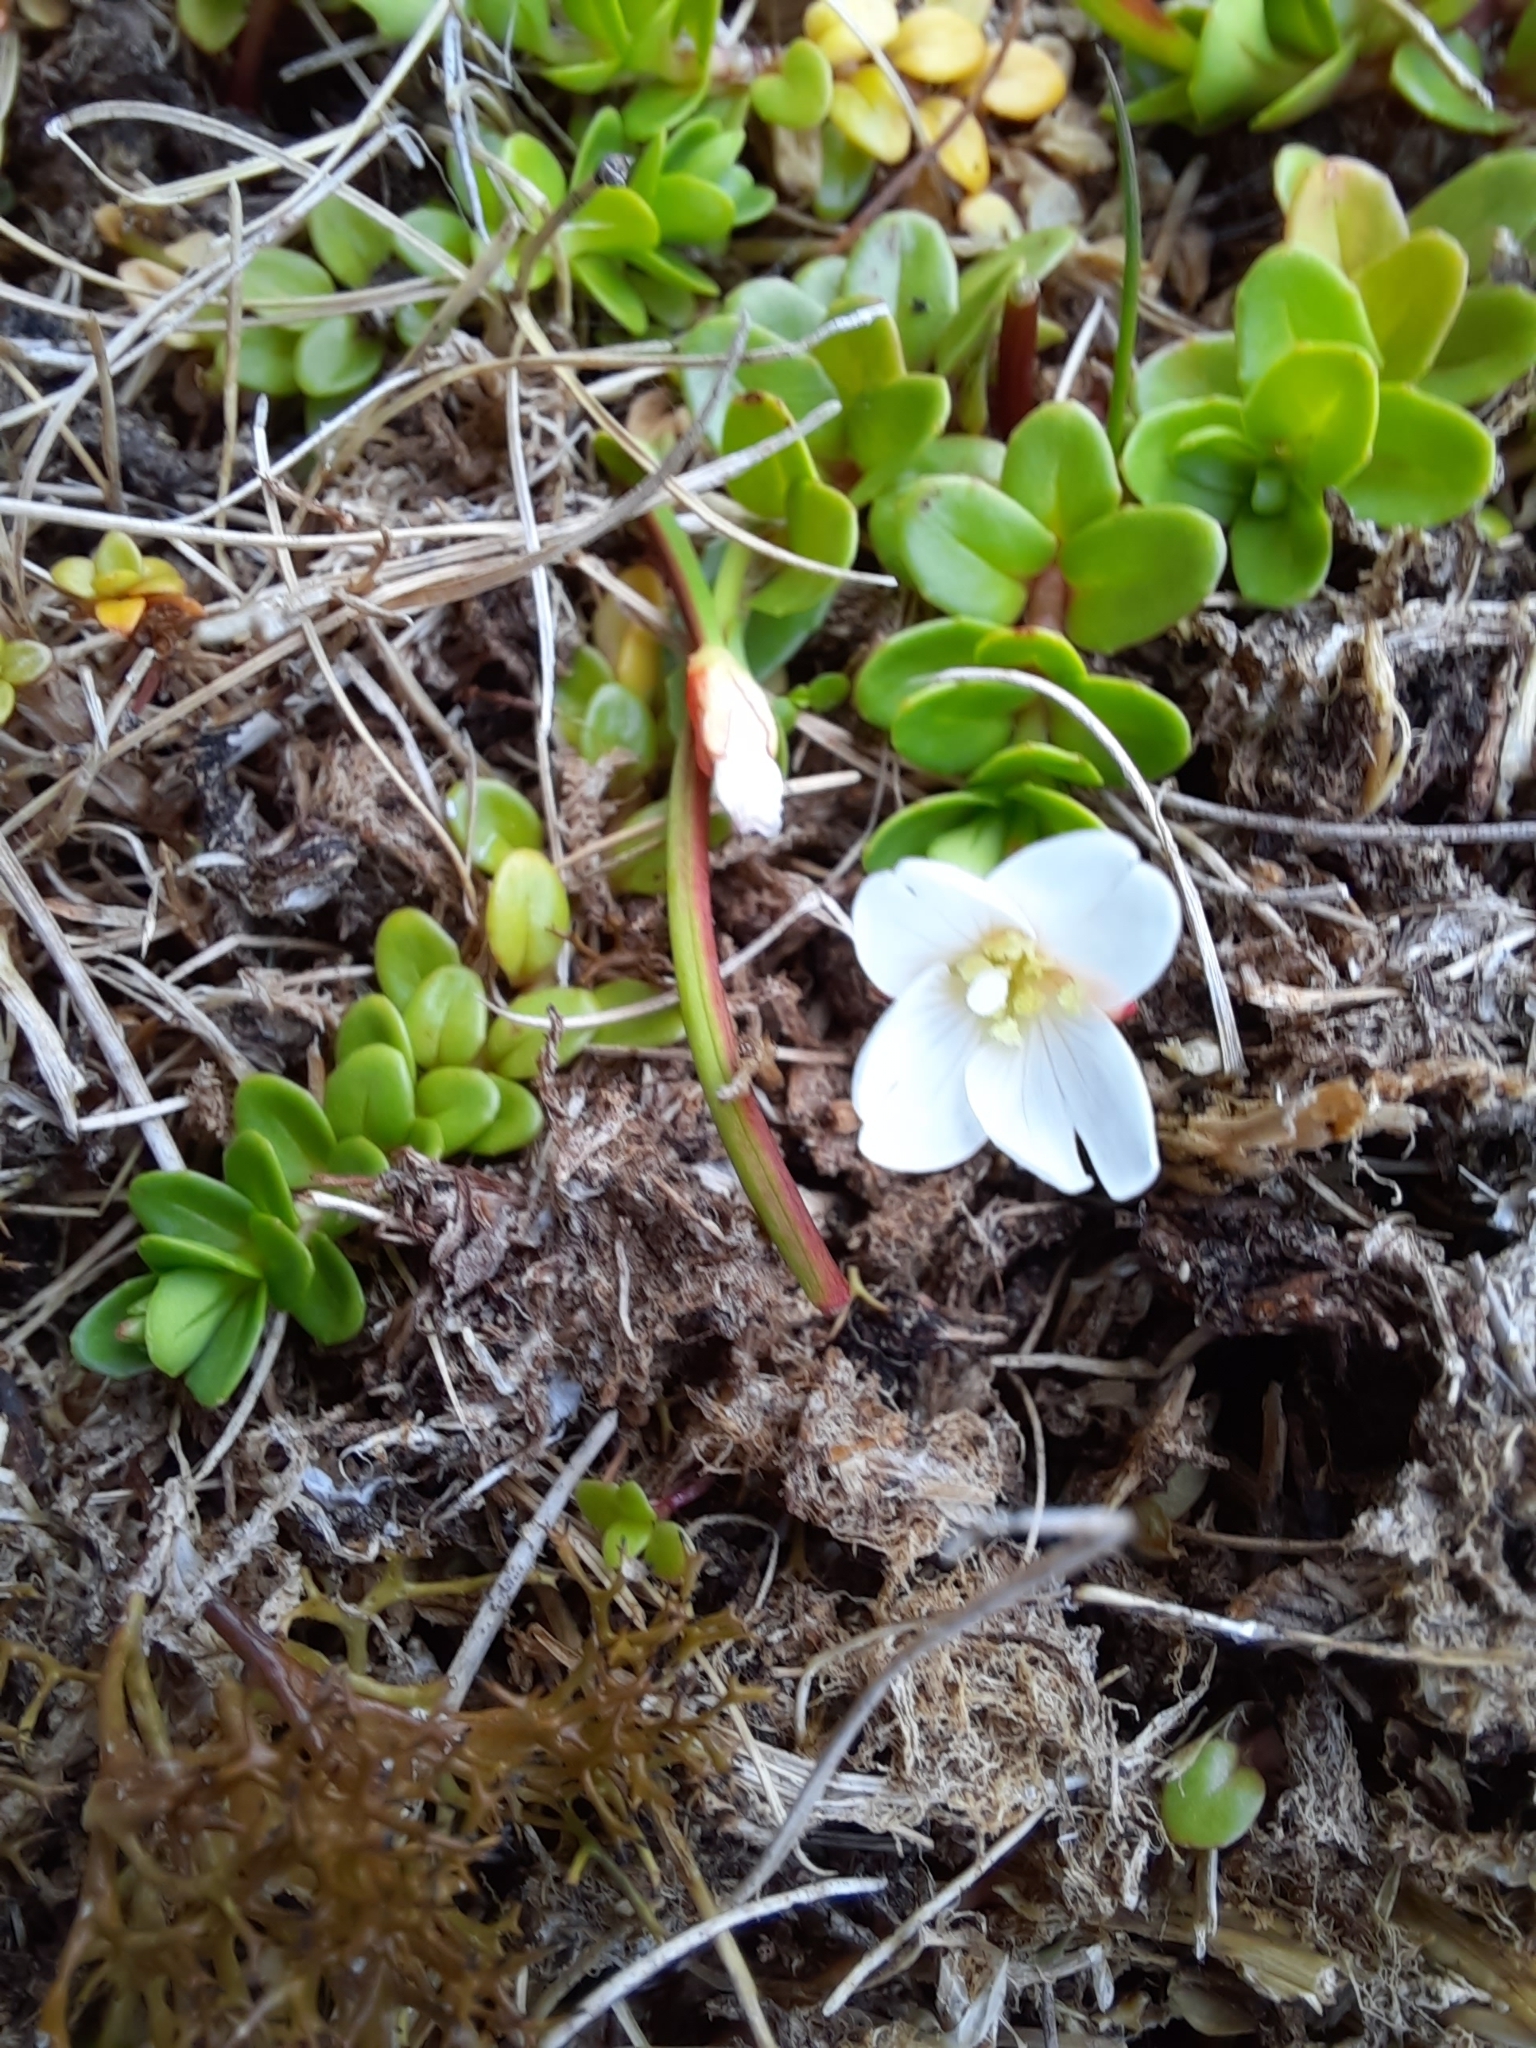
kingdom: Plantae
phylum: Tracheophyta
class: Magnoliopsida
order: Myrtales
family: Onagraceae
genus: Epilobium
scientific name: Epilobium confertifolium
